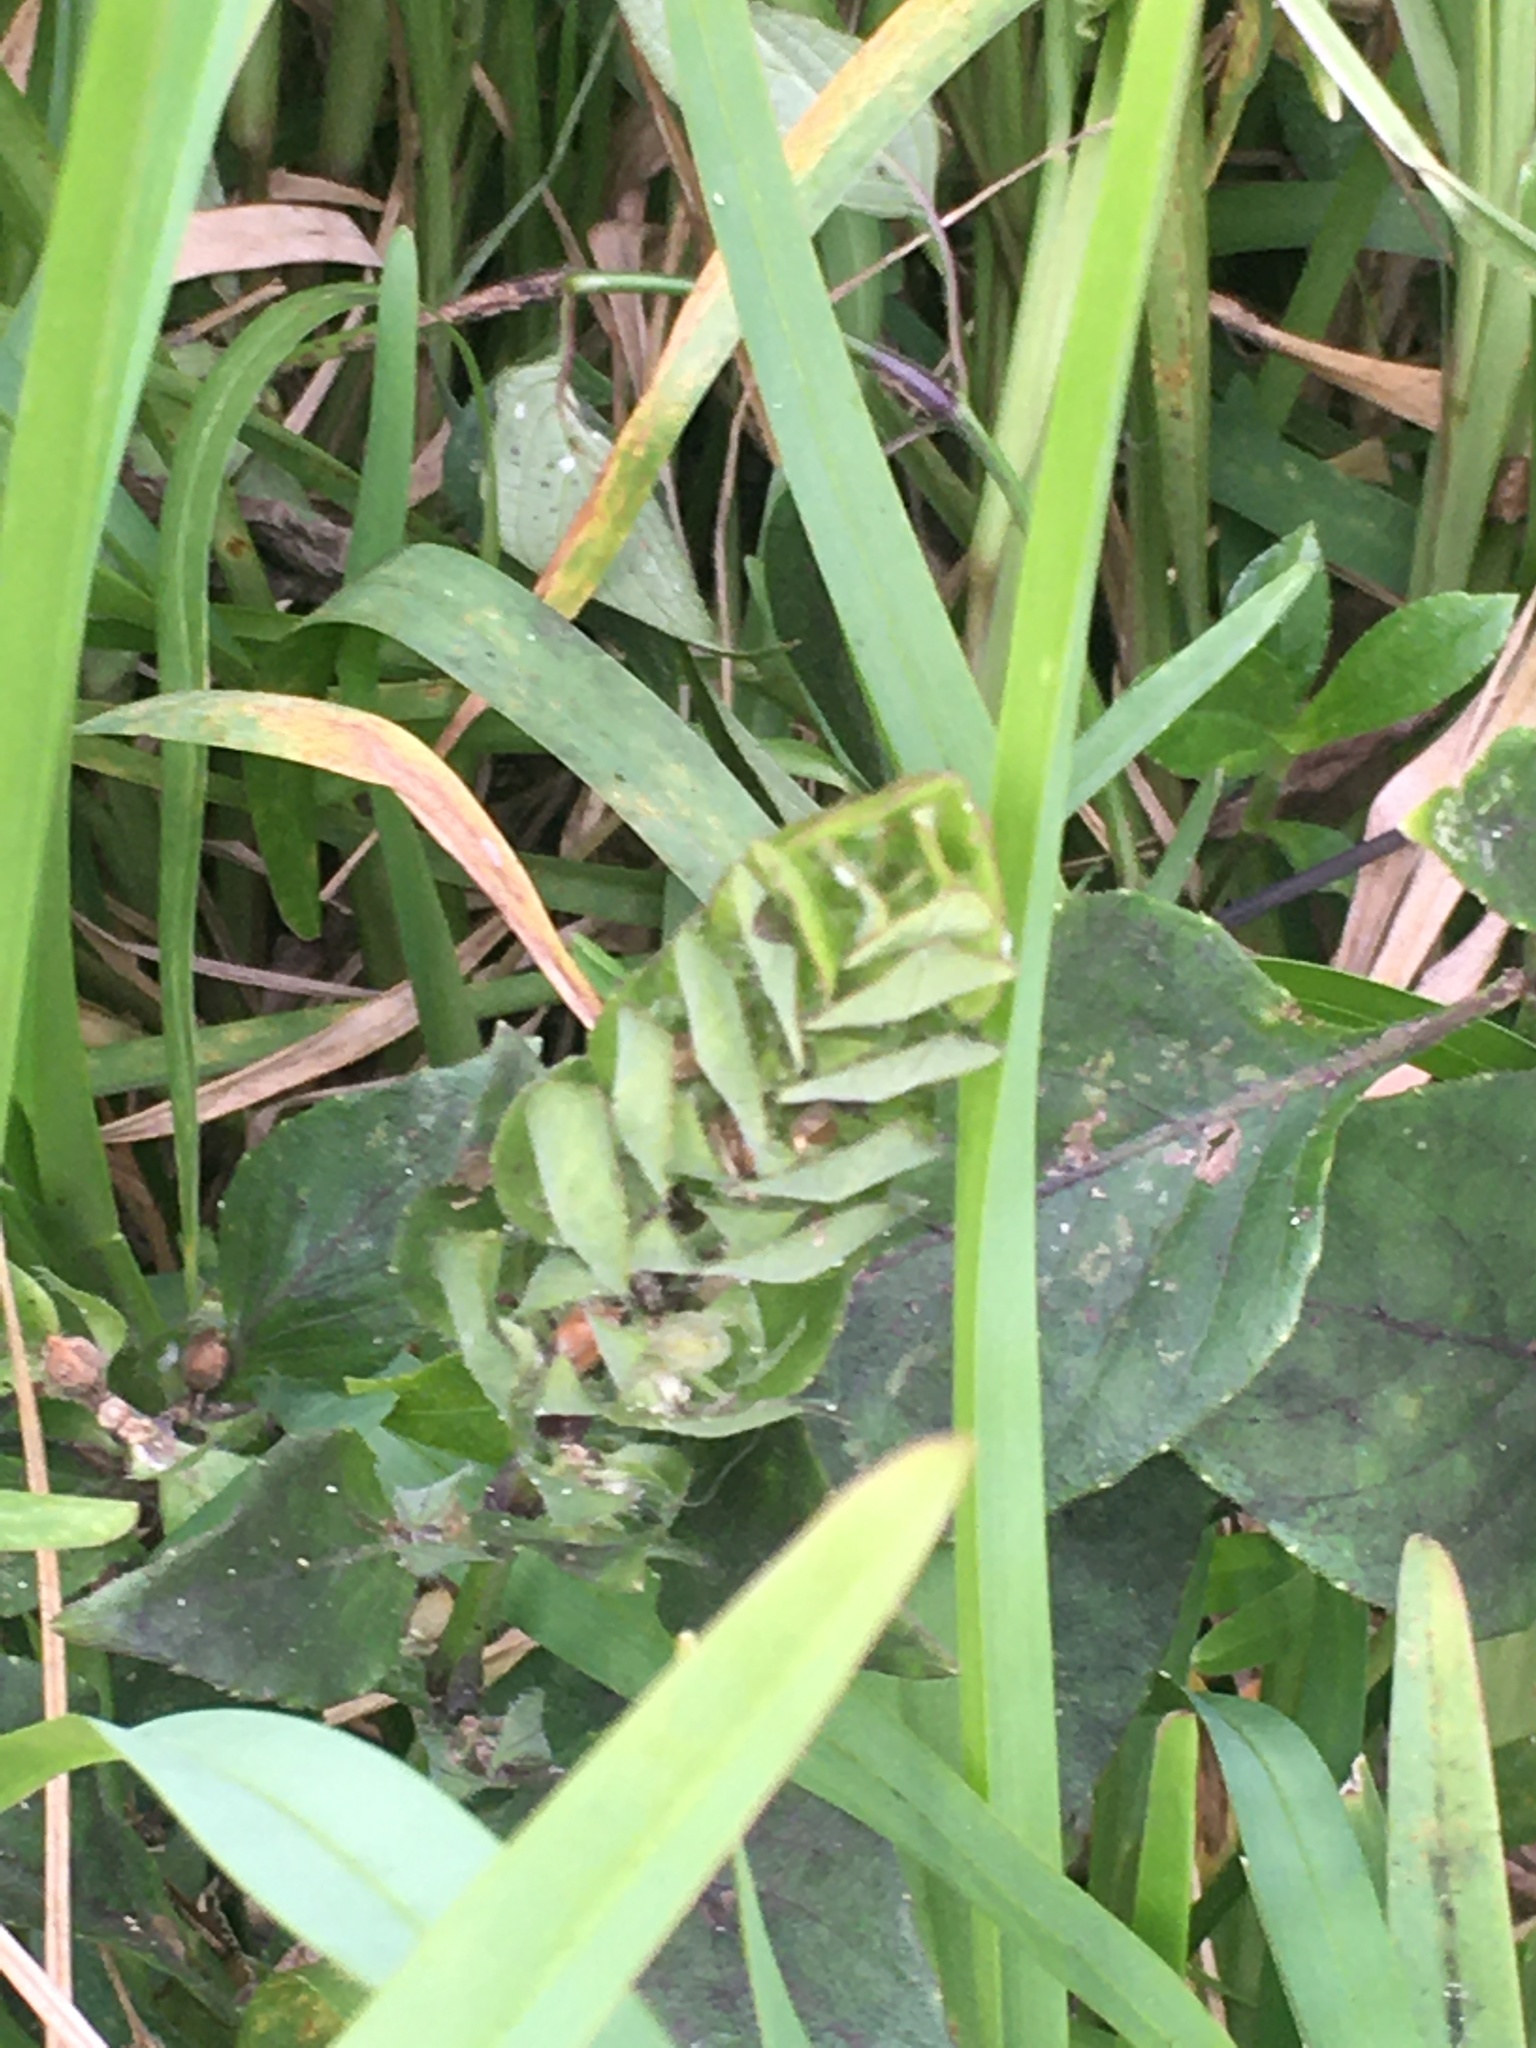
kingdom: Plantae
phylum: Tracheophyta
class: Magnoliopsida
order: Lamiales
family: Acanthaceae
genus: Ruellia
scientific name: Ruellia blechum
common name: Browne's blechum
